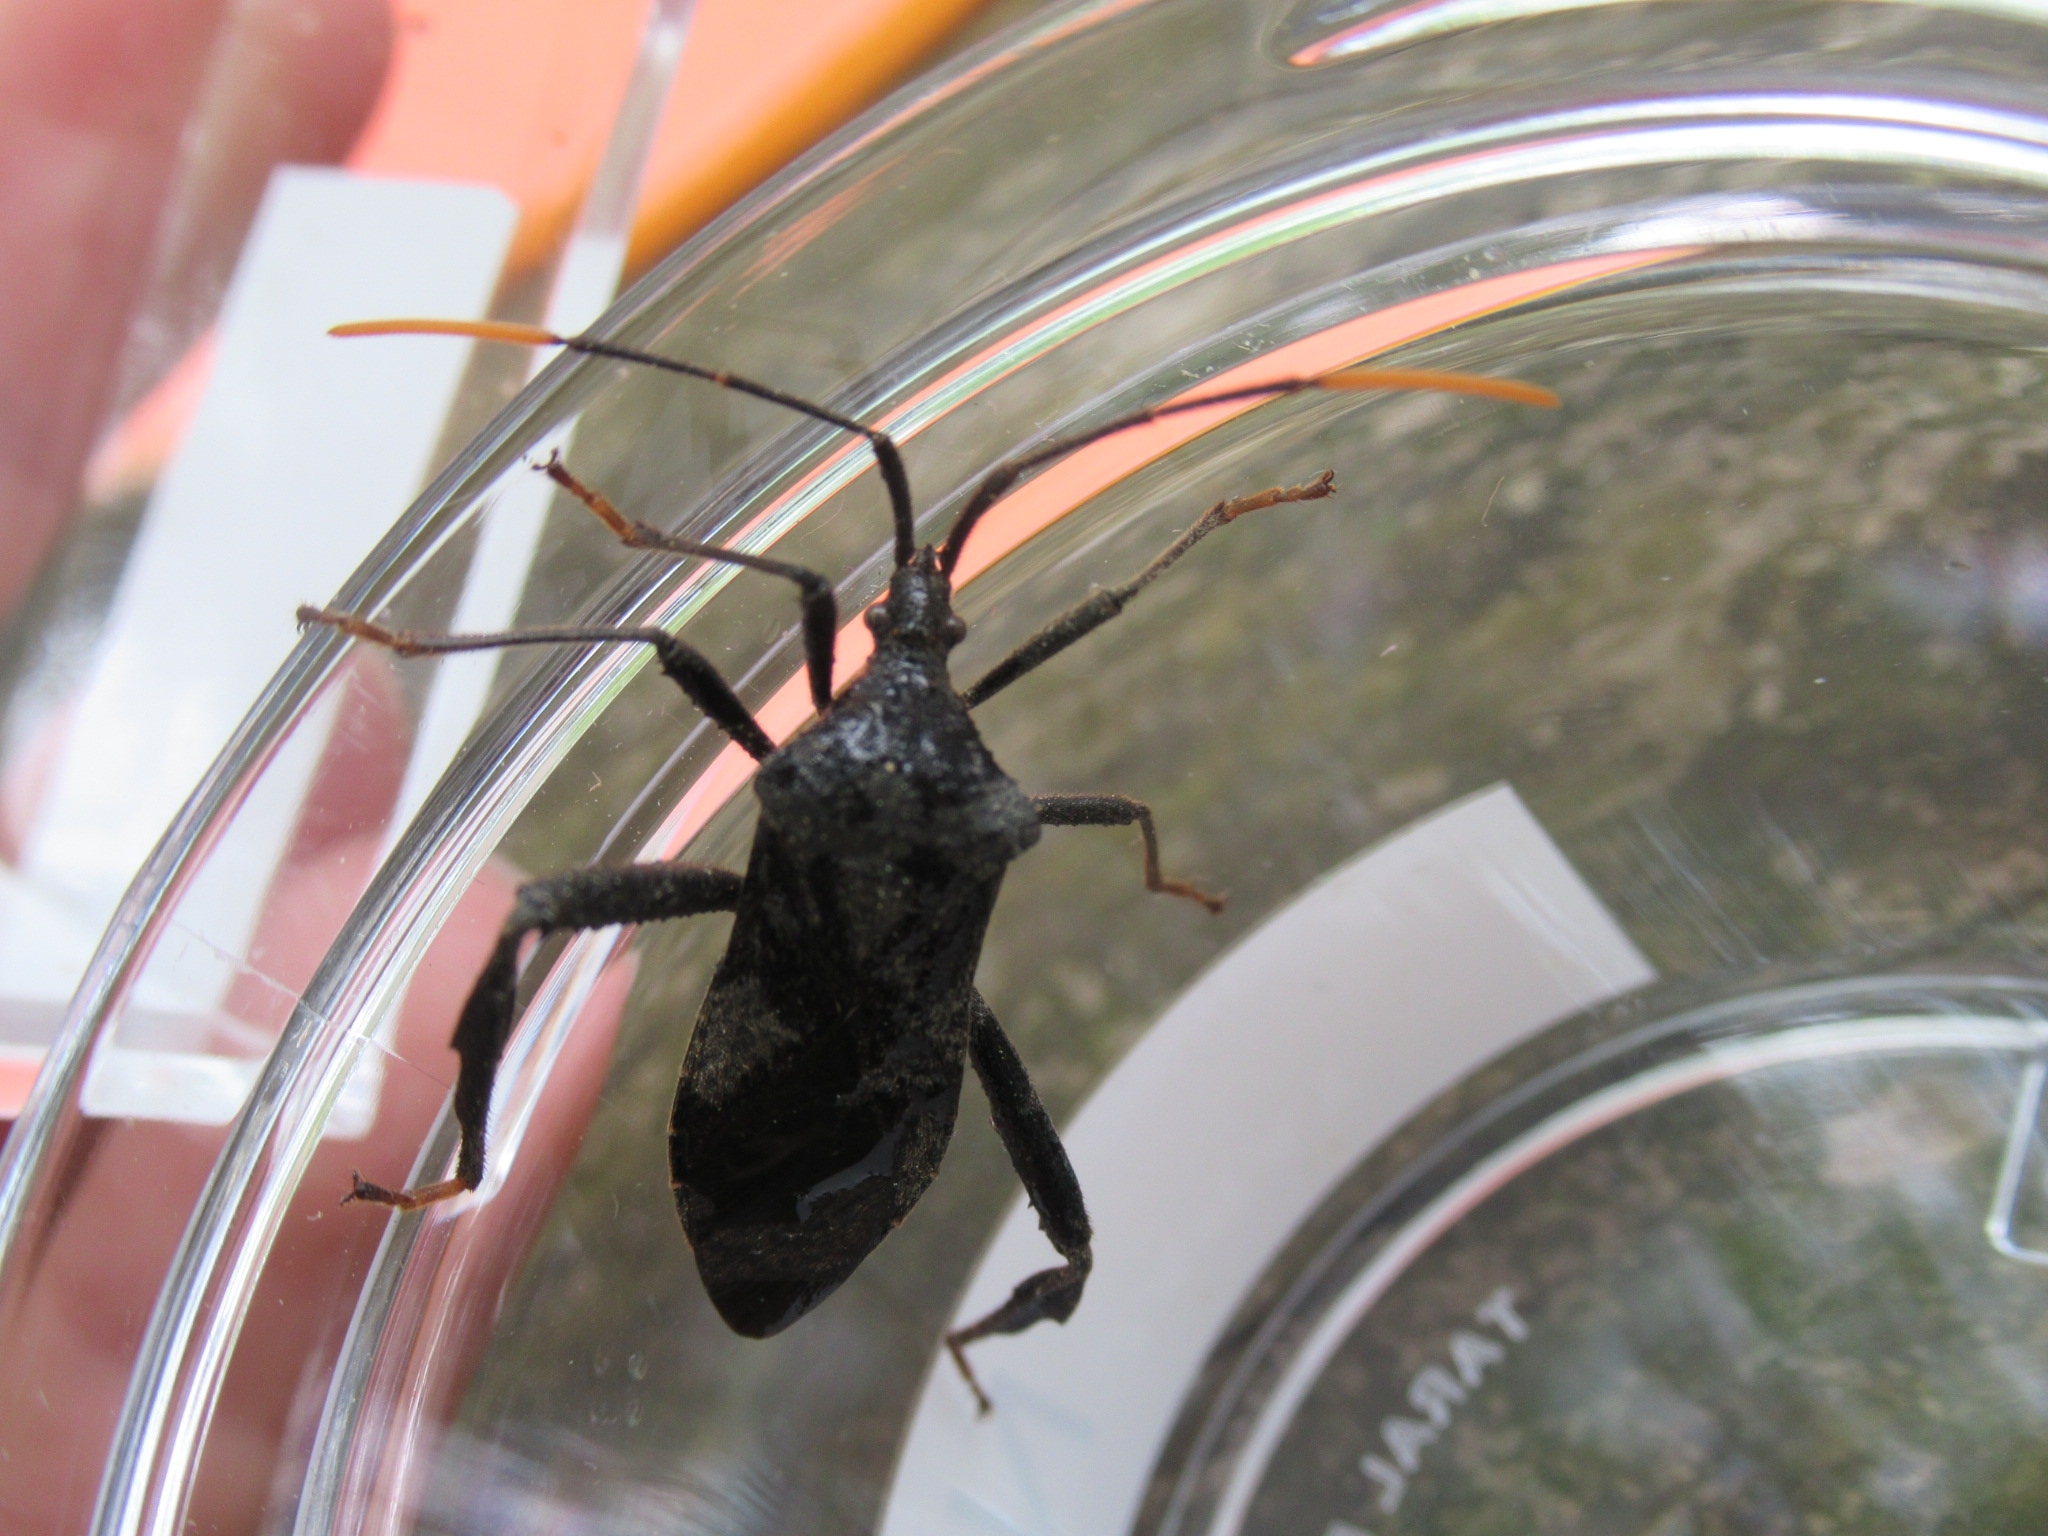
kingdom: Animalia
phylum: Arthropoda
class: Insecta
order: Hemiptera
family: Coreidae
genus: Acanthocephala
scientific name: Acanthocephala terminalis
